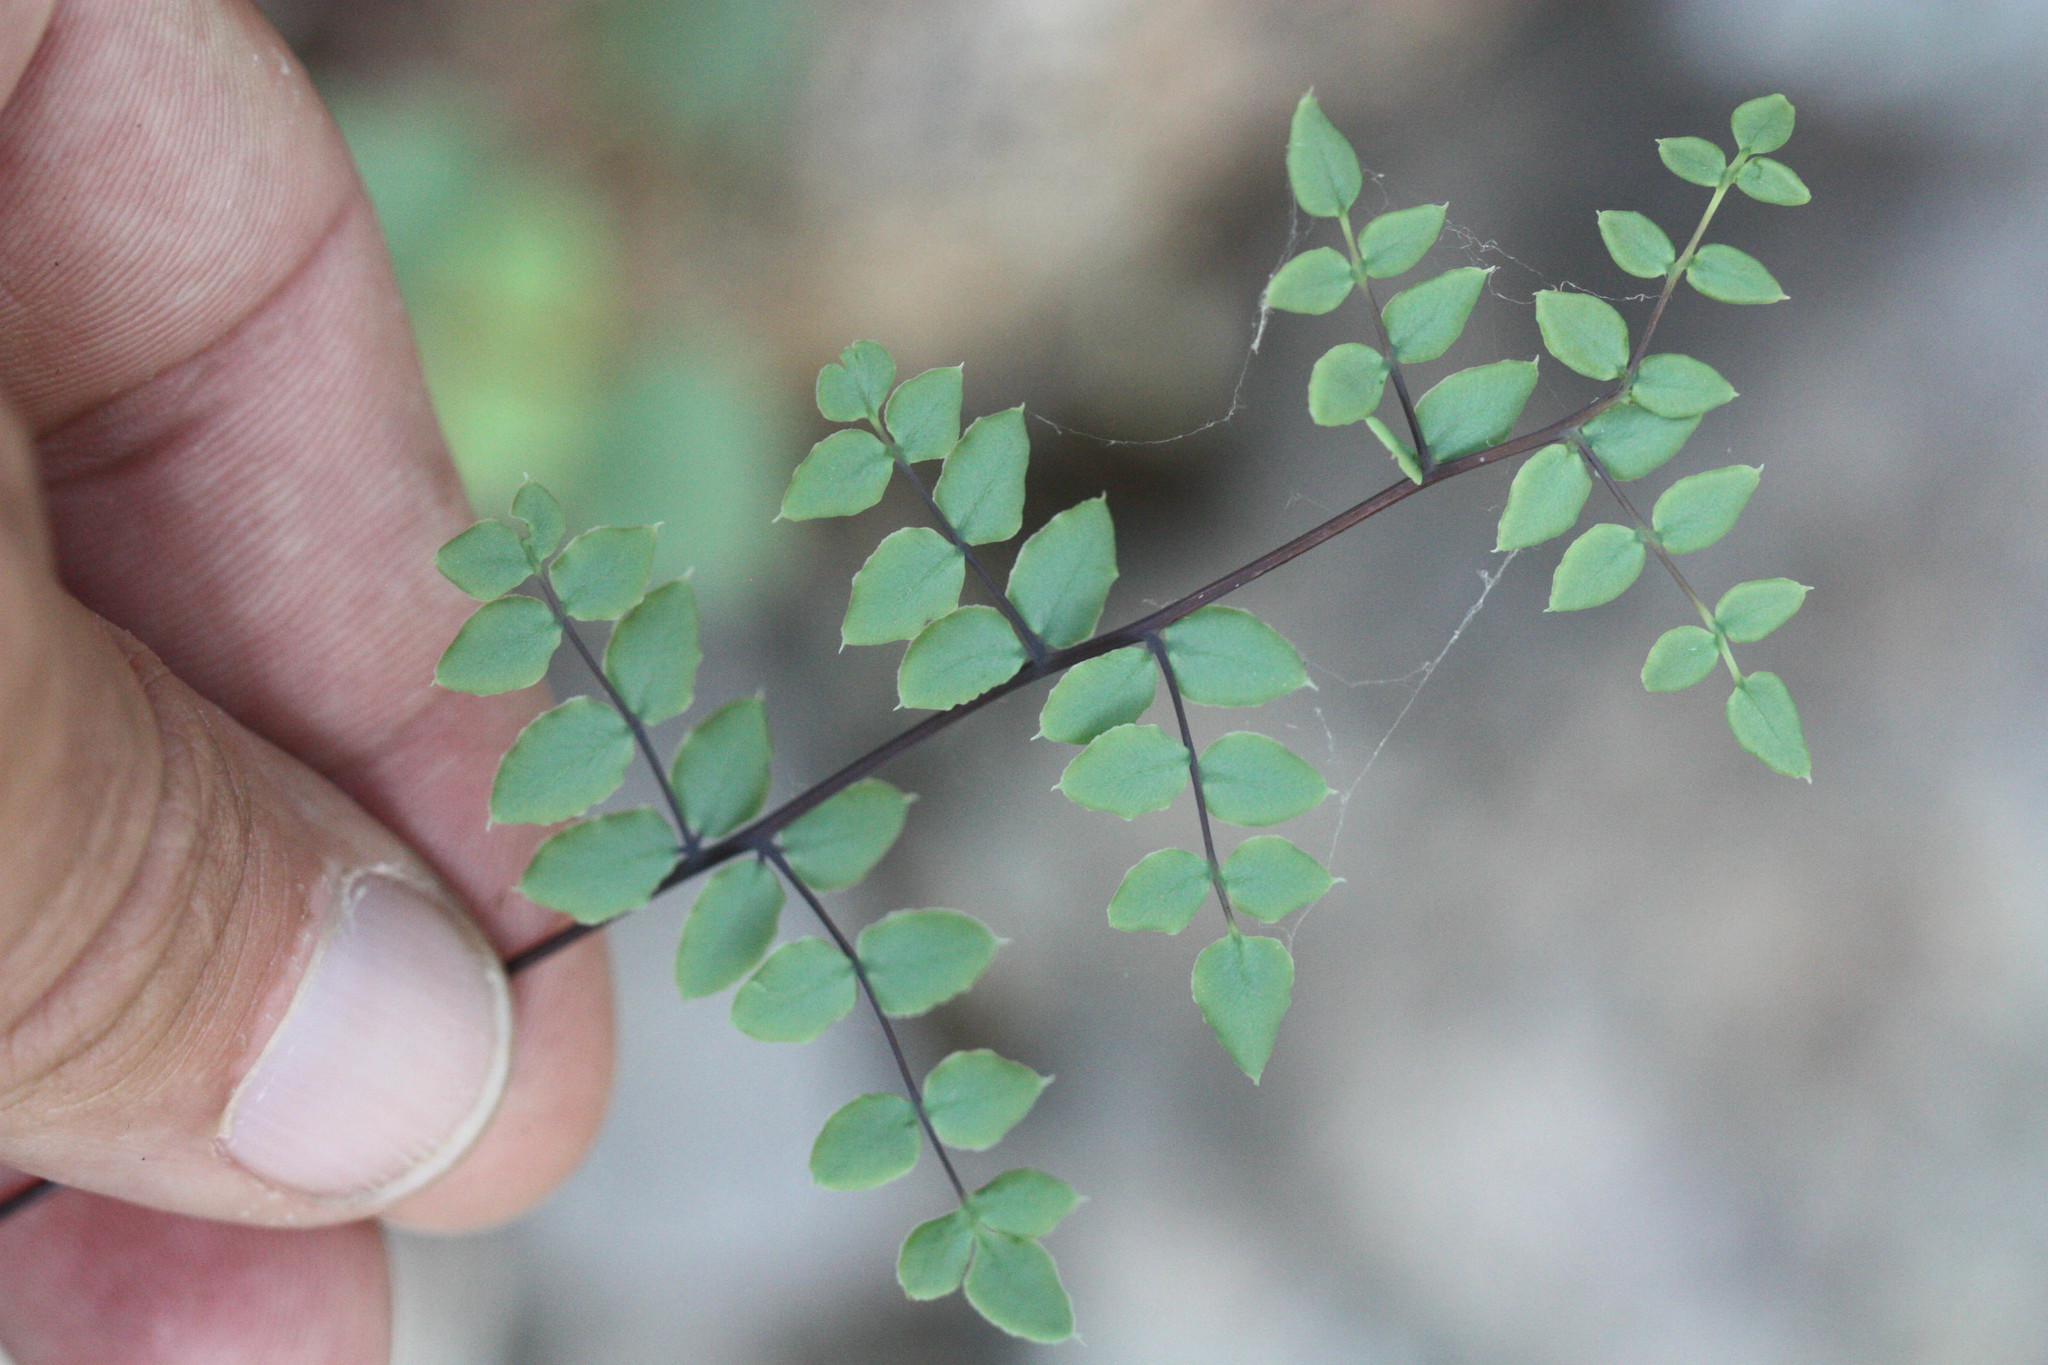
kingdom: Plantae
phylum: Tracheophyta
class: Polypodiopsida
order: Polypodiales
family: Pteridaceae
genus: Pellaea
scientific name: Pellaea truncata
